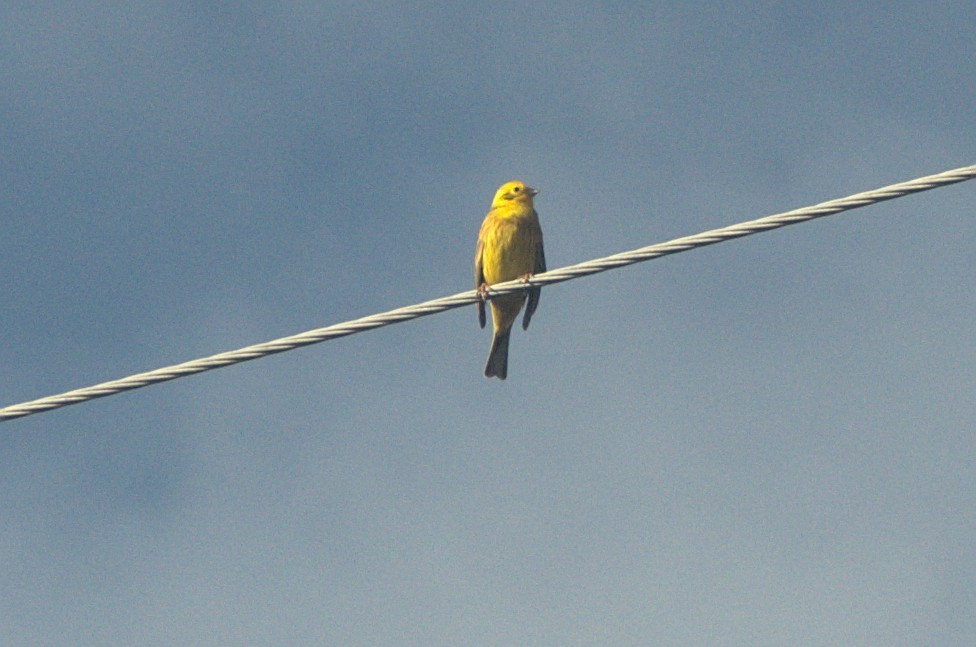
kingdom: Animalia
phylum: Chordata
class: Aves
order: Passeriformes
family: Emberizidae
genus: Emberiza
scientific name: Emberiza citrinella
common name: Yellowhammer
